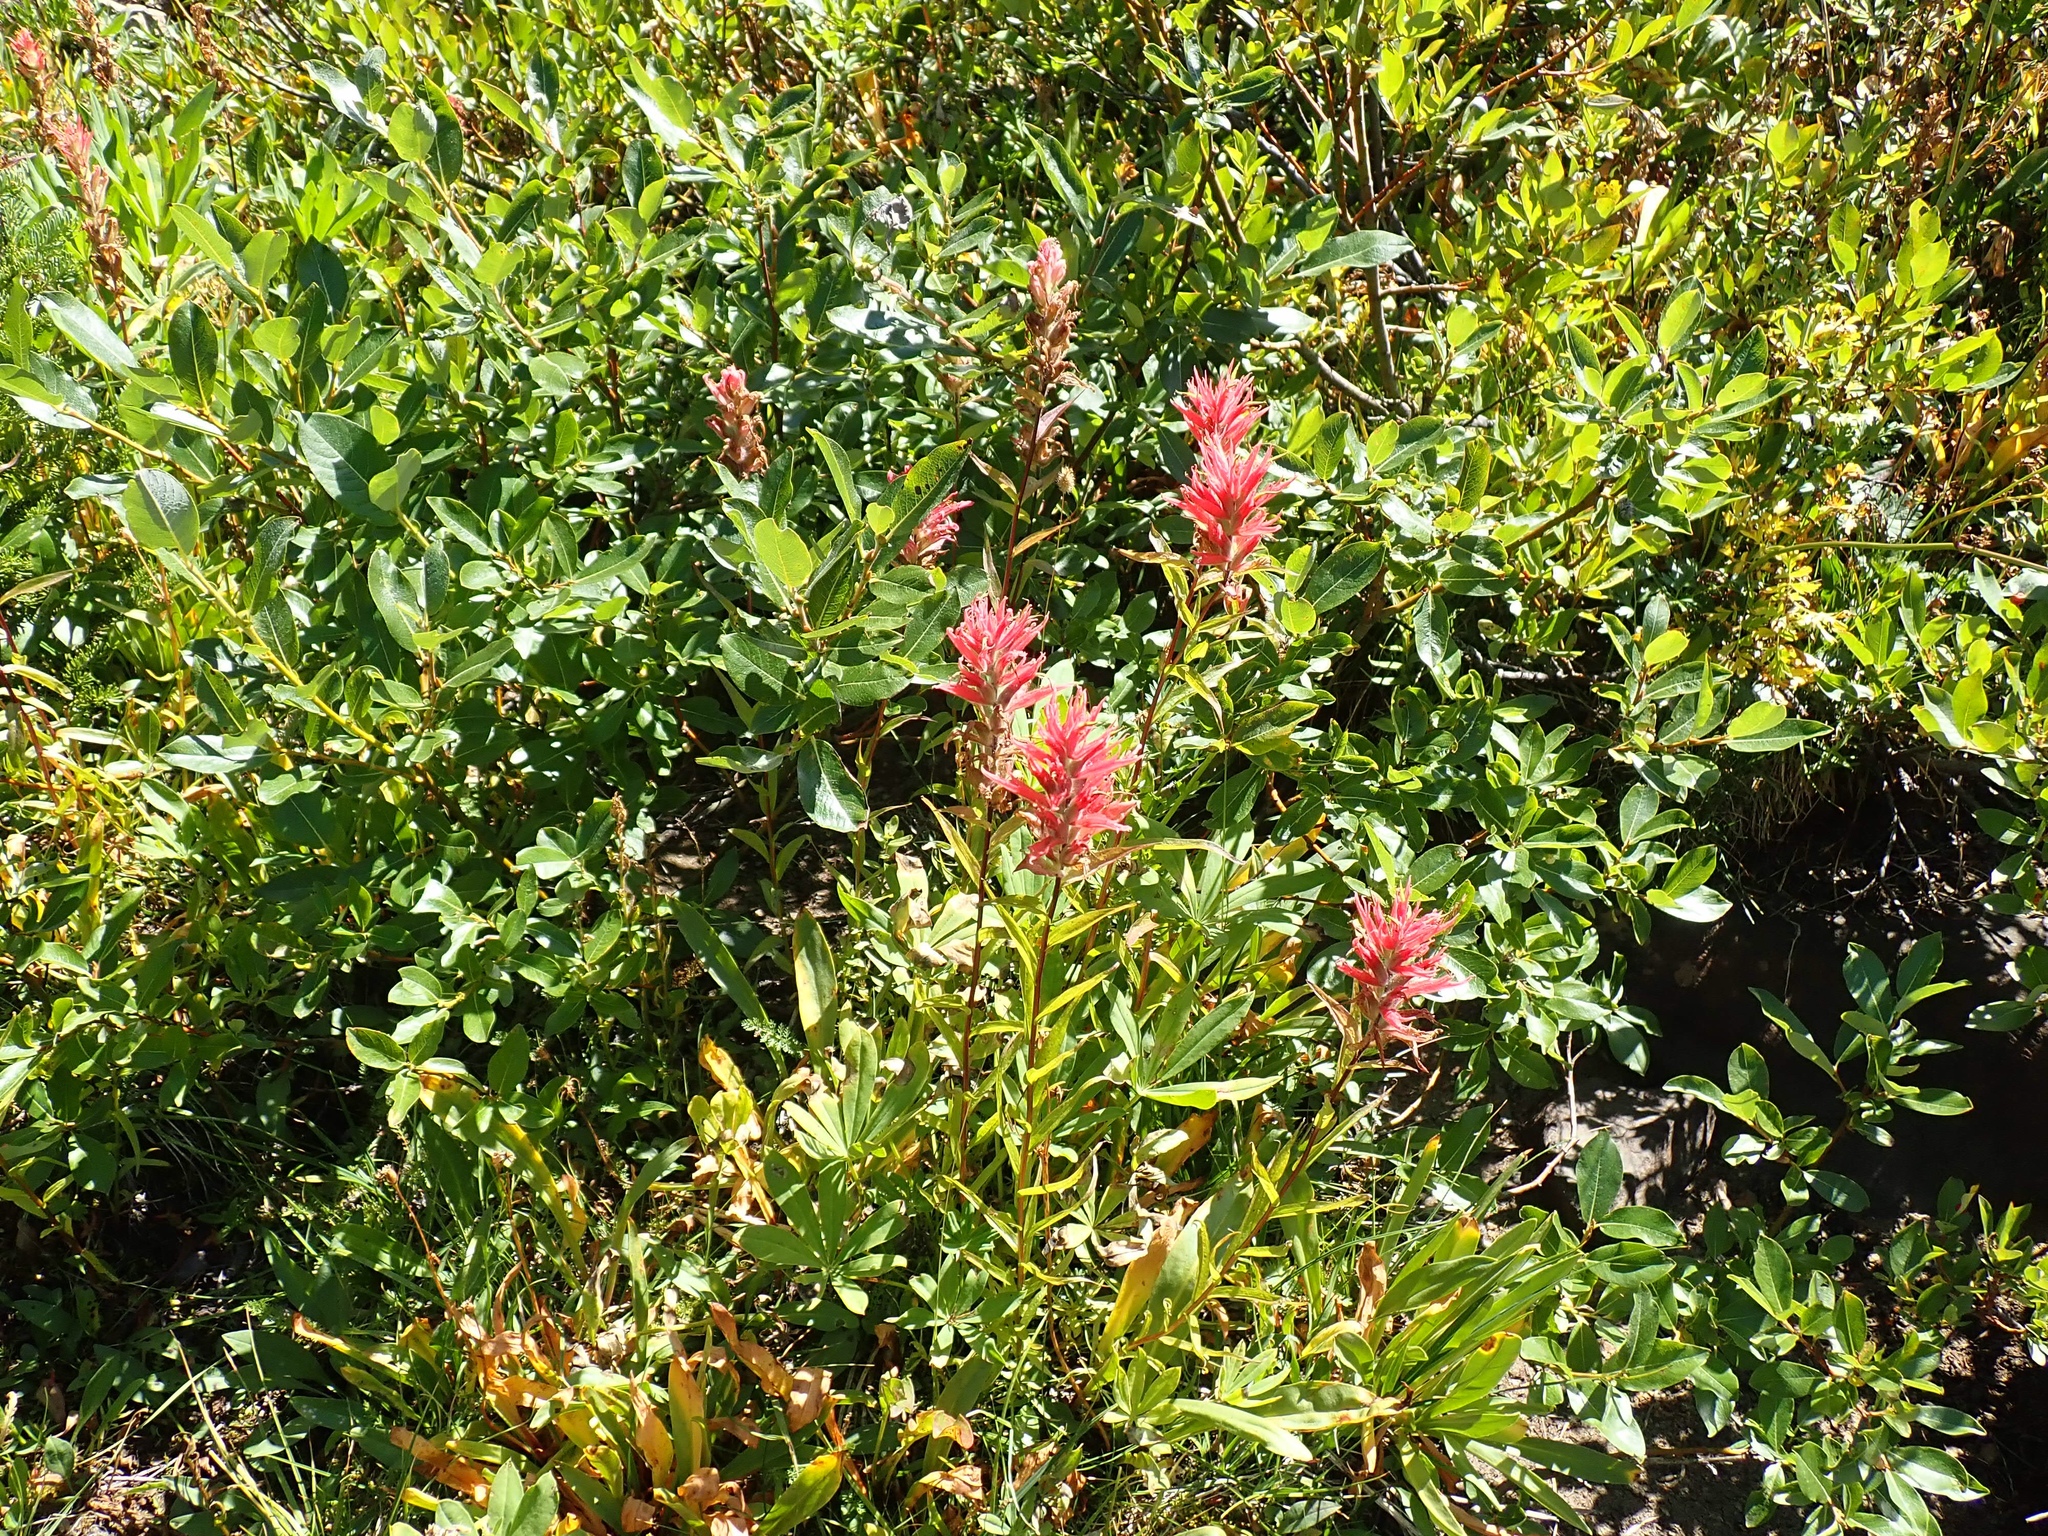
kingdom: Plantae
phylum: Tracheophyta
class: Magnoliopsida
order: Lamiales
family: Orobanchaceae
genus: Castilleja
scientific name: Castilleja miniata
